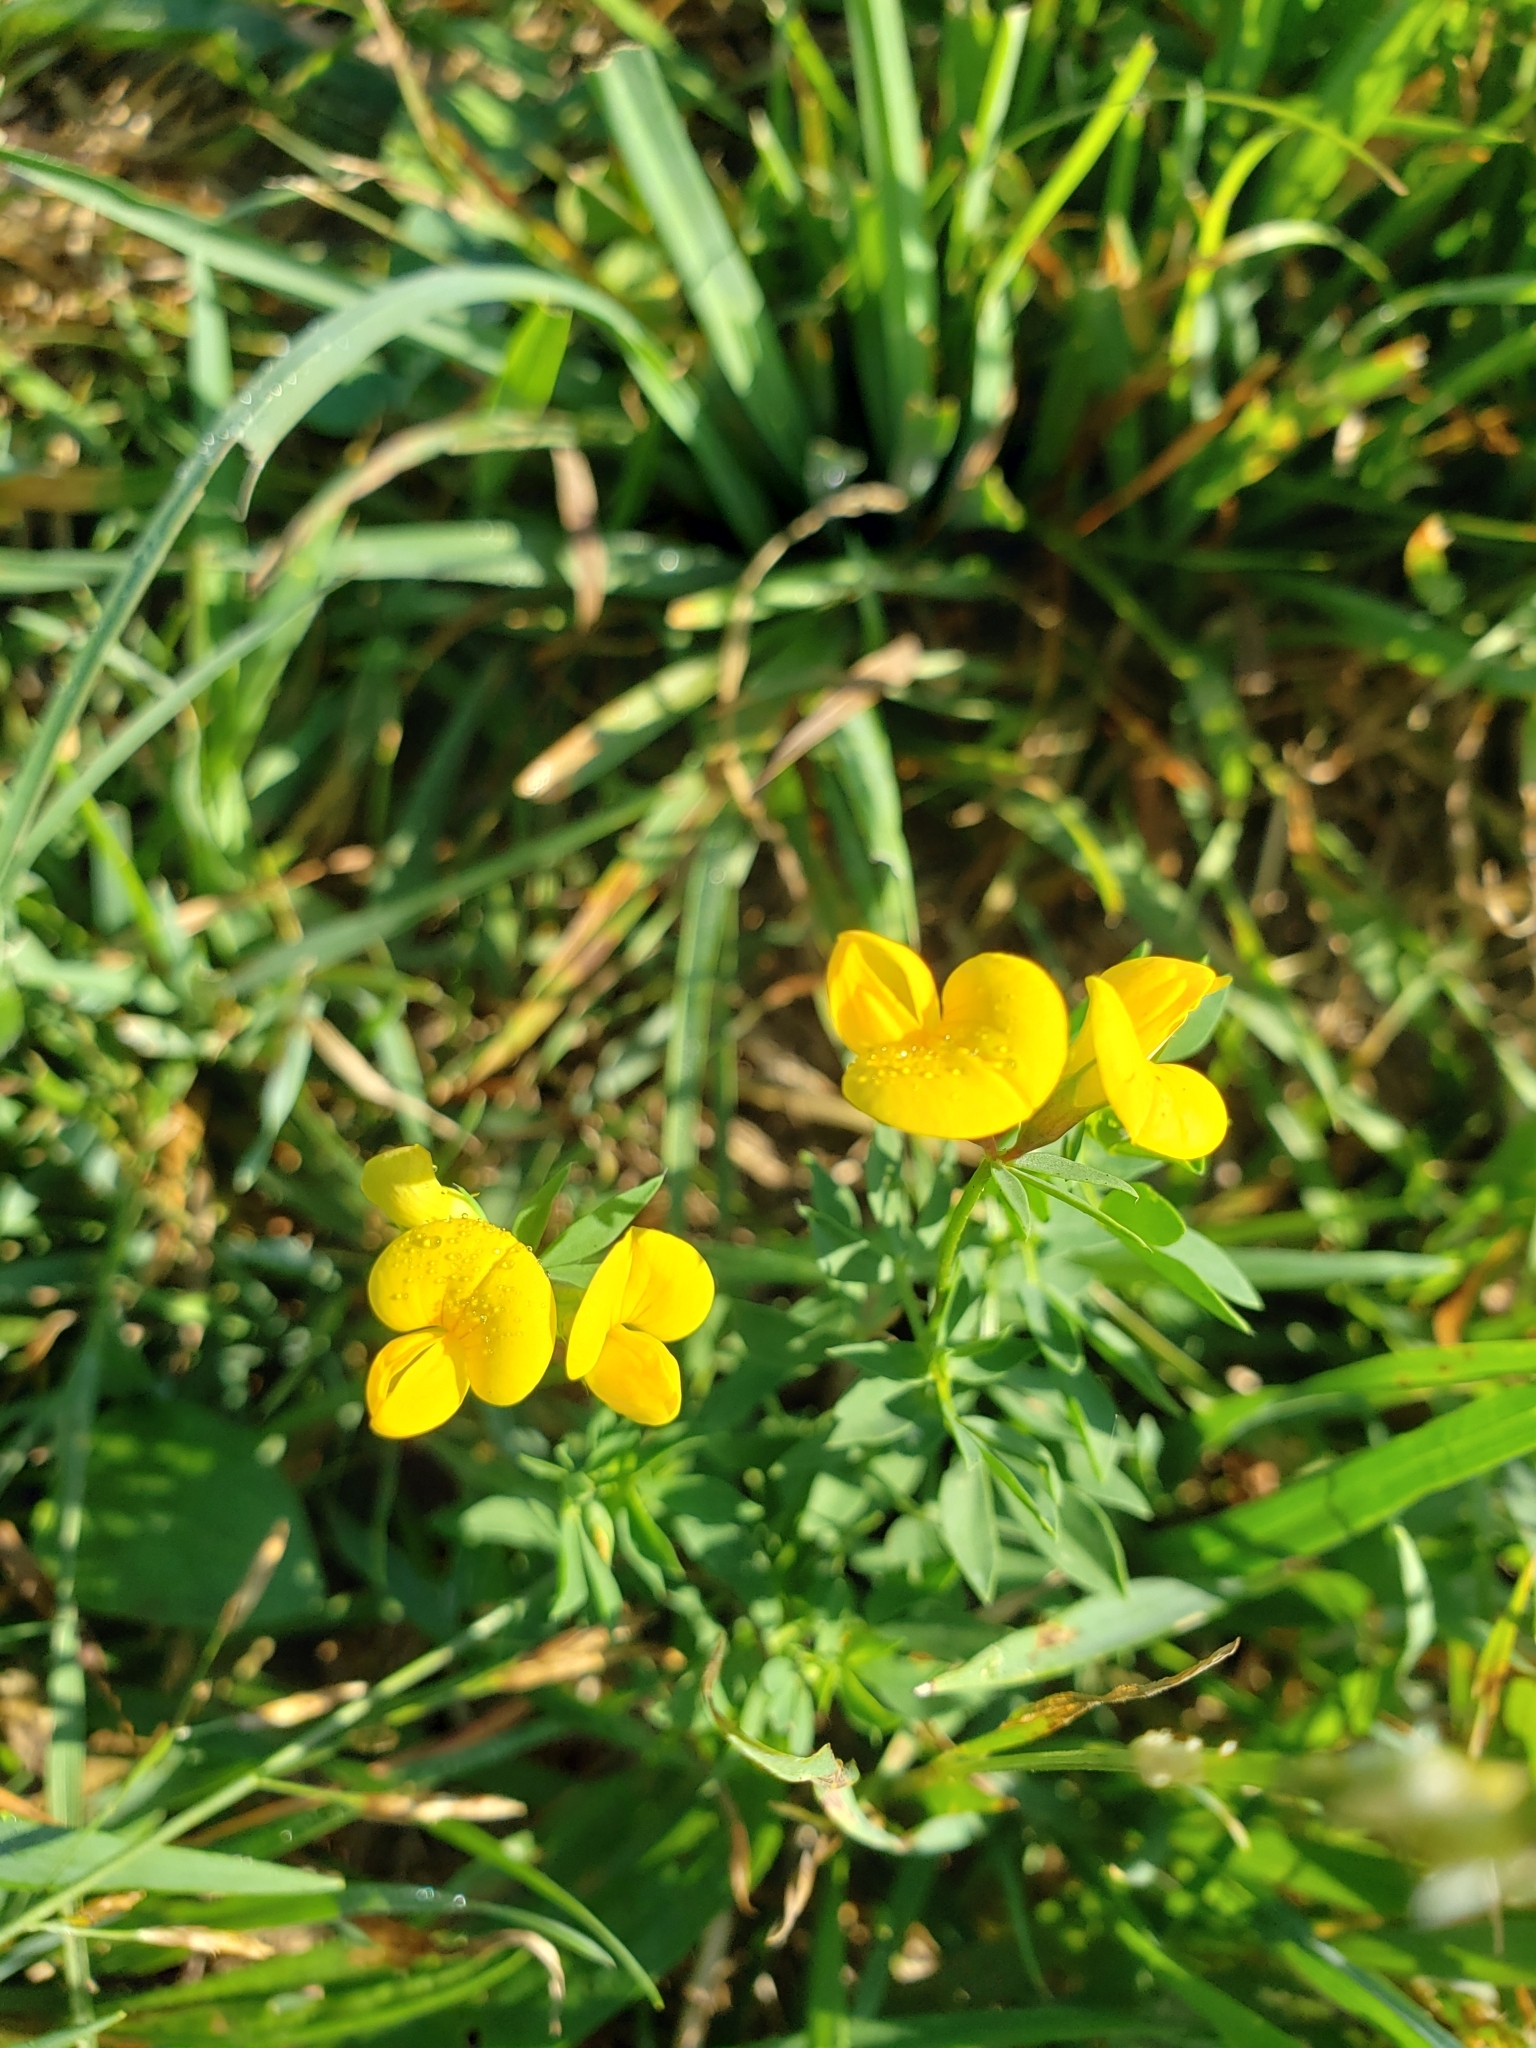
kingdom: Plantae
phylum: Tracheophyta
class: Magnoliopsida
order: Fabales
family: Fabaceae
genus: Lotus
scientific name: Lotus corniculatus
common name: Common bird's-foot-trefoil
